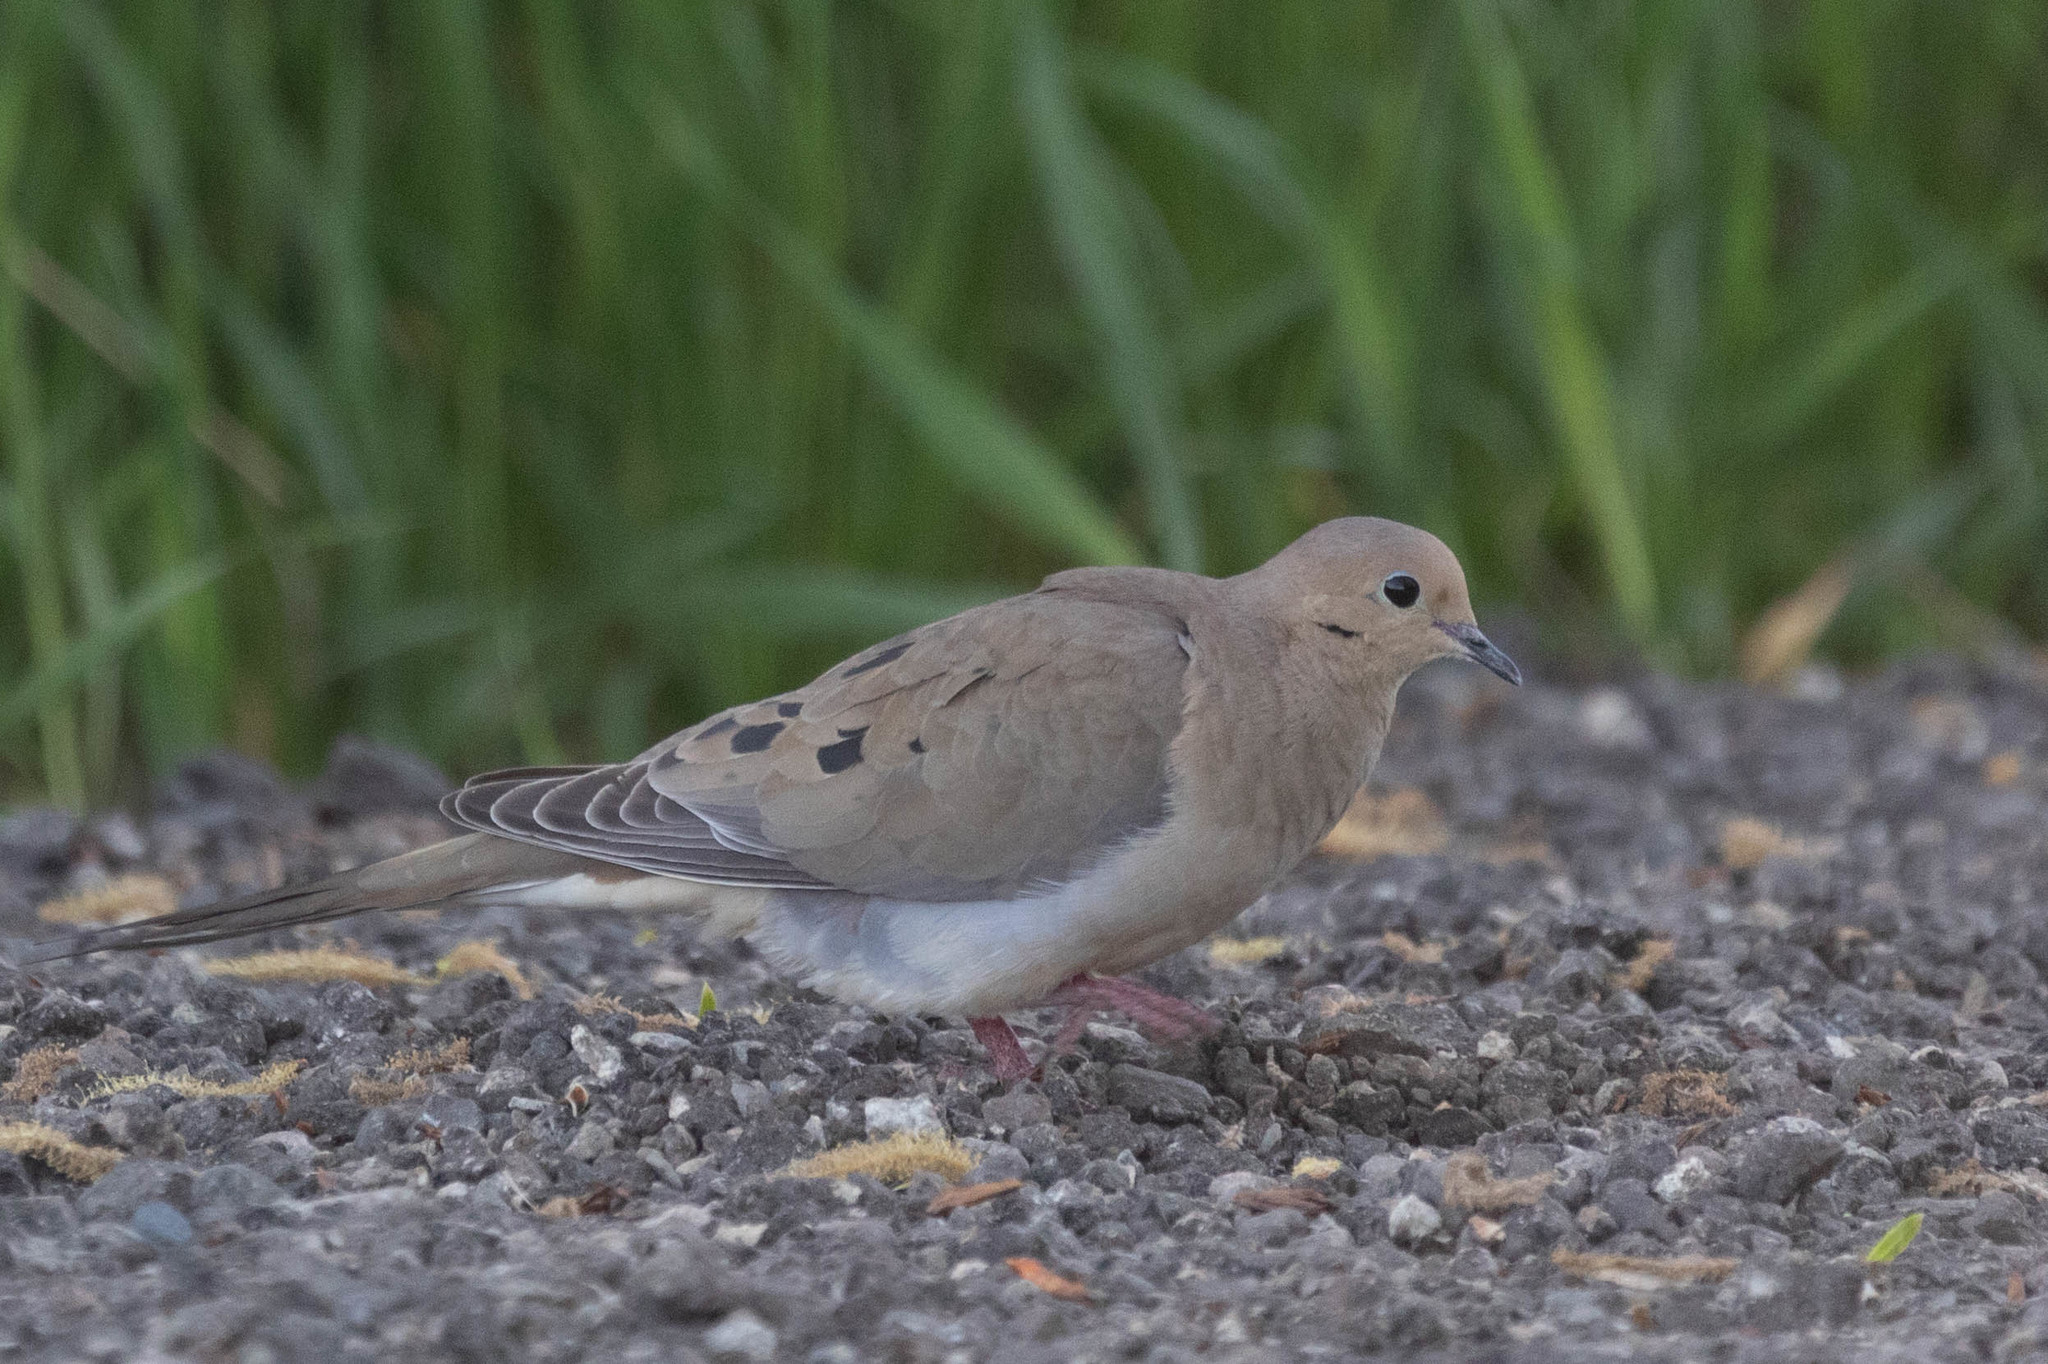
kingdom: Animalia
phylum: Chordata
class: Aves
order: Columbiformes
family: Columbidae
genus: Zenaida
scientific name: Zenaida macroura
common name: Mourning dove
